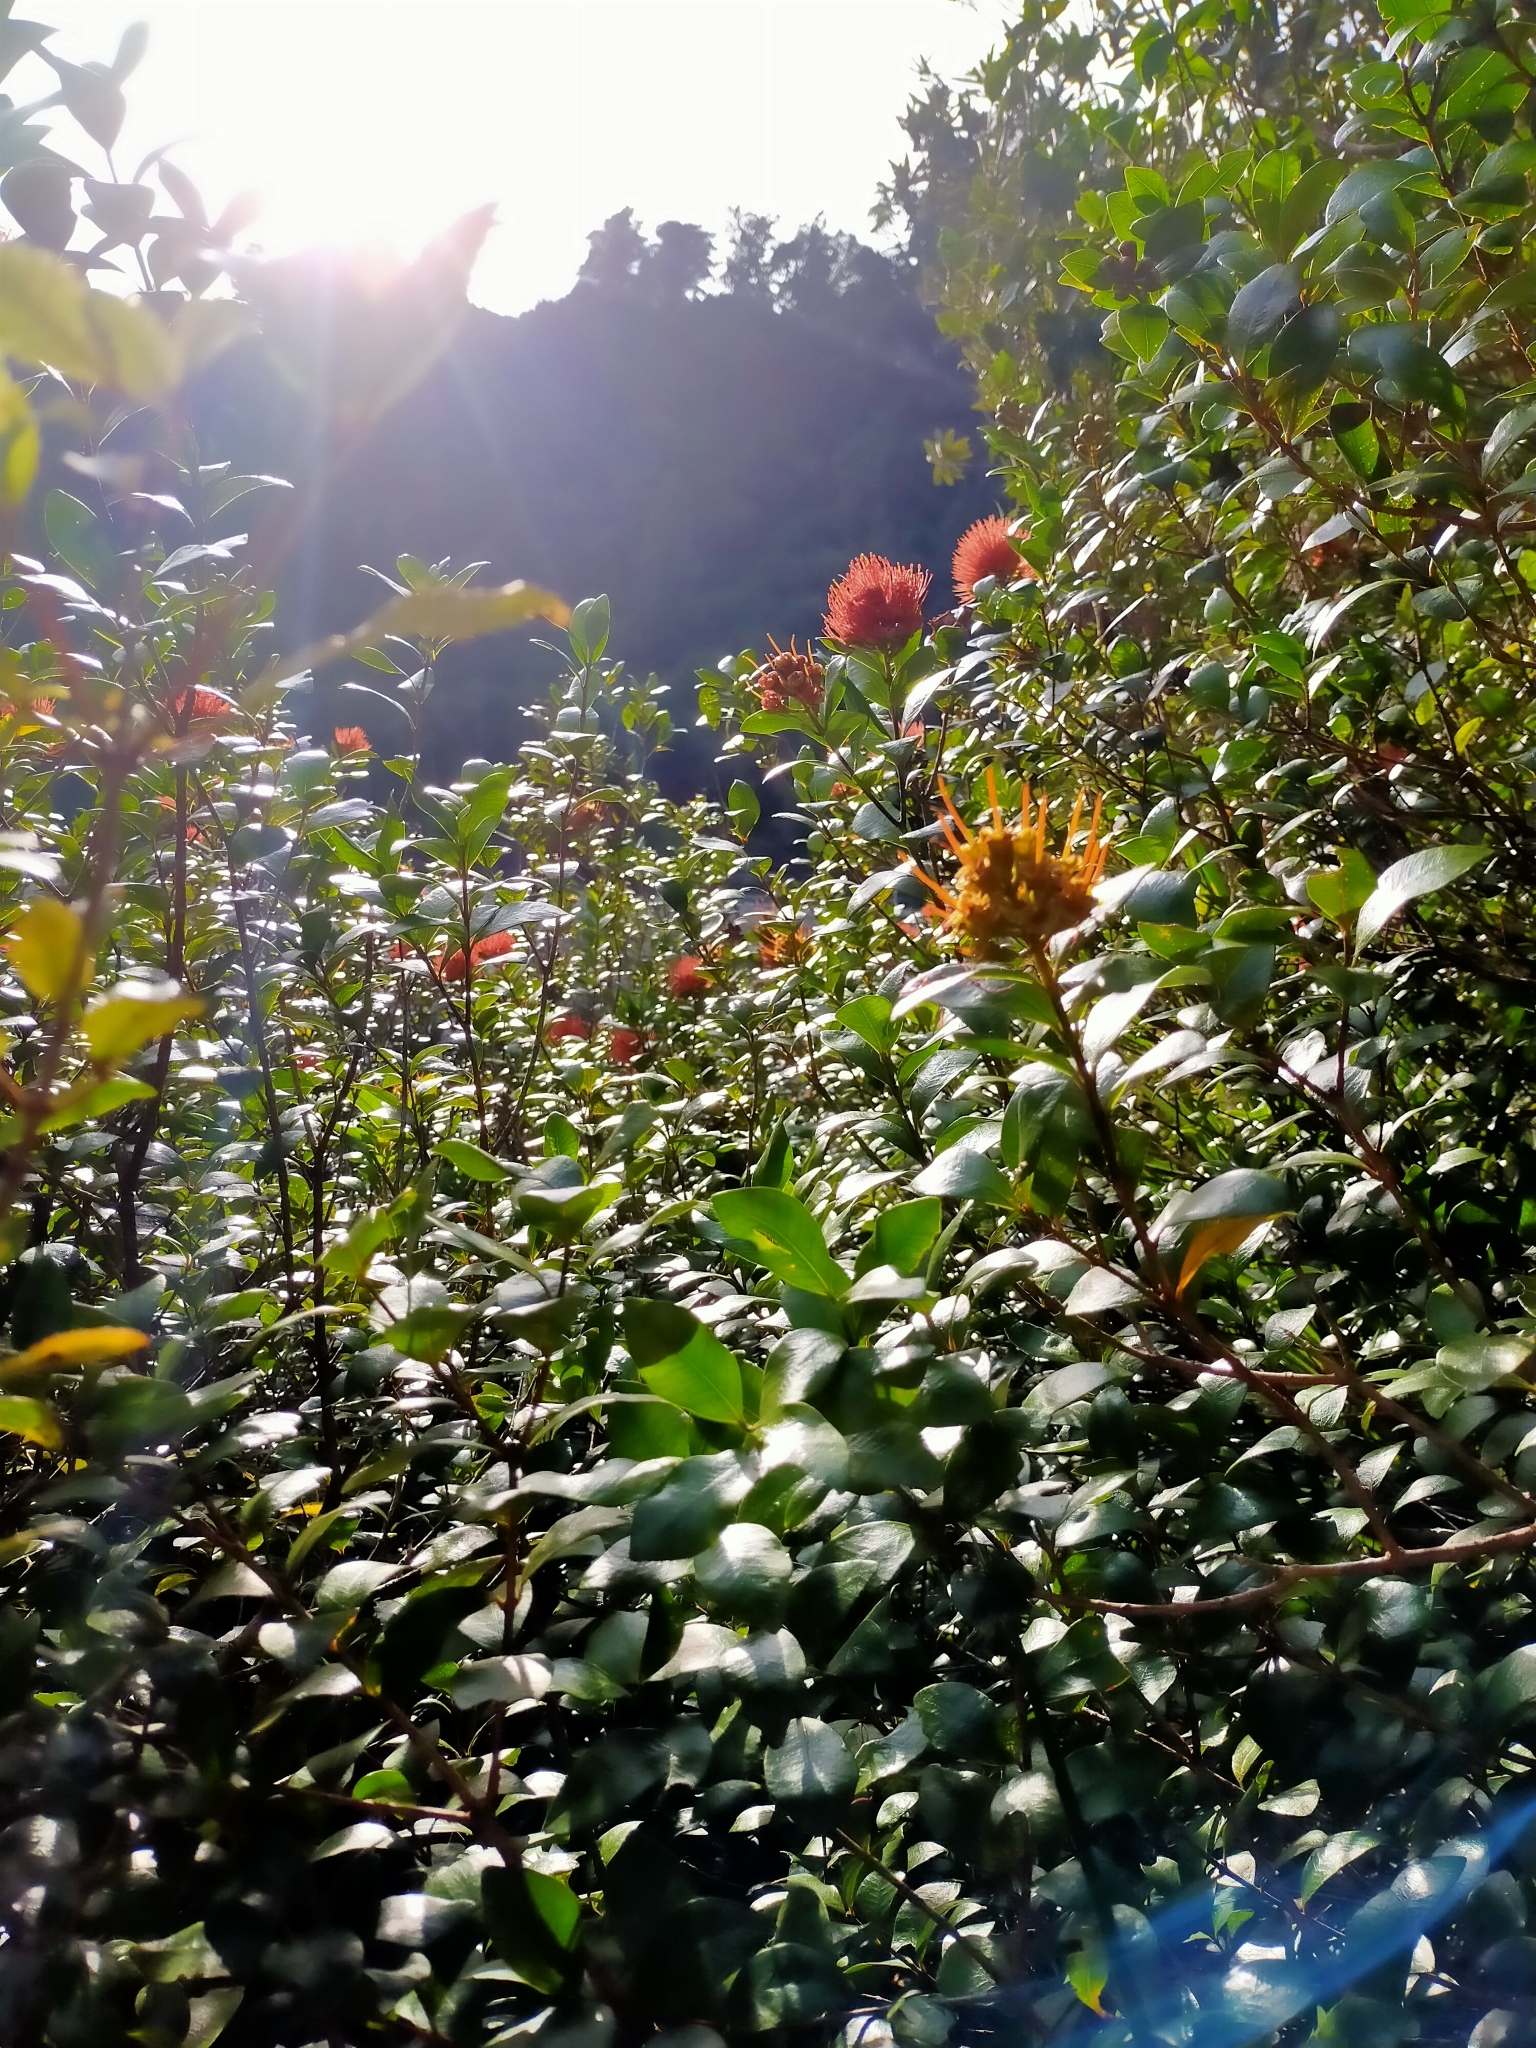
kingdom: Plantae
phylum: Tracheophyta
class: Magnoliopsida
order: Myrtales
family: Myrtaceae
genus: Metrosideros
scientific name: Metrosideros fulgens
